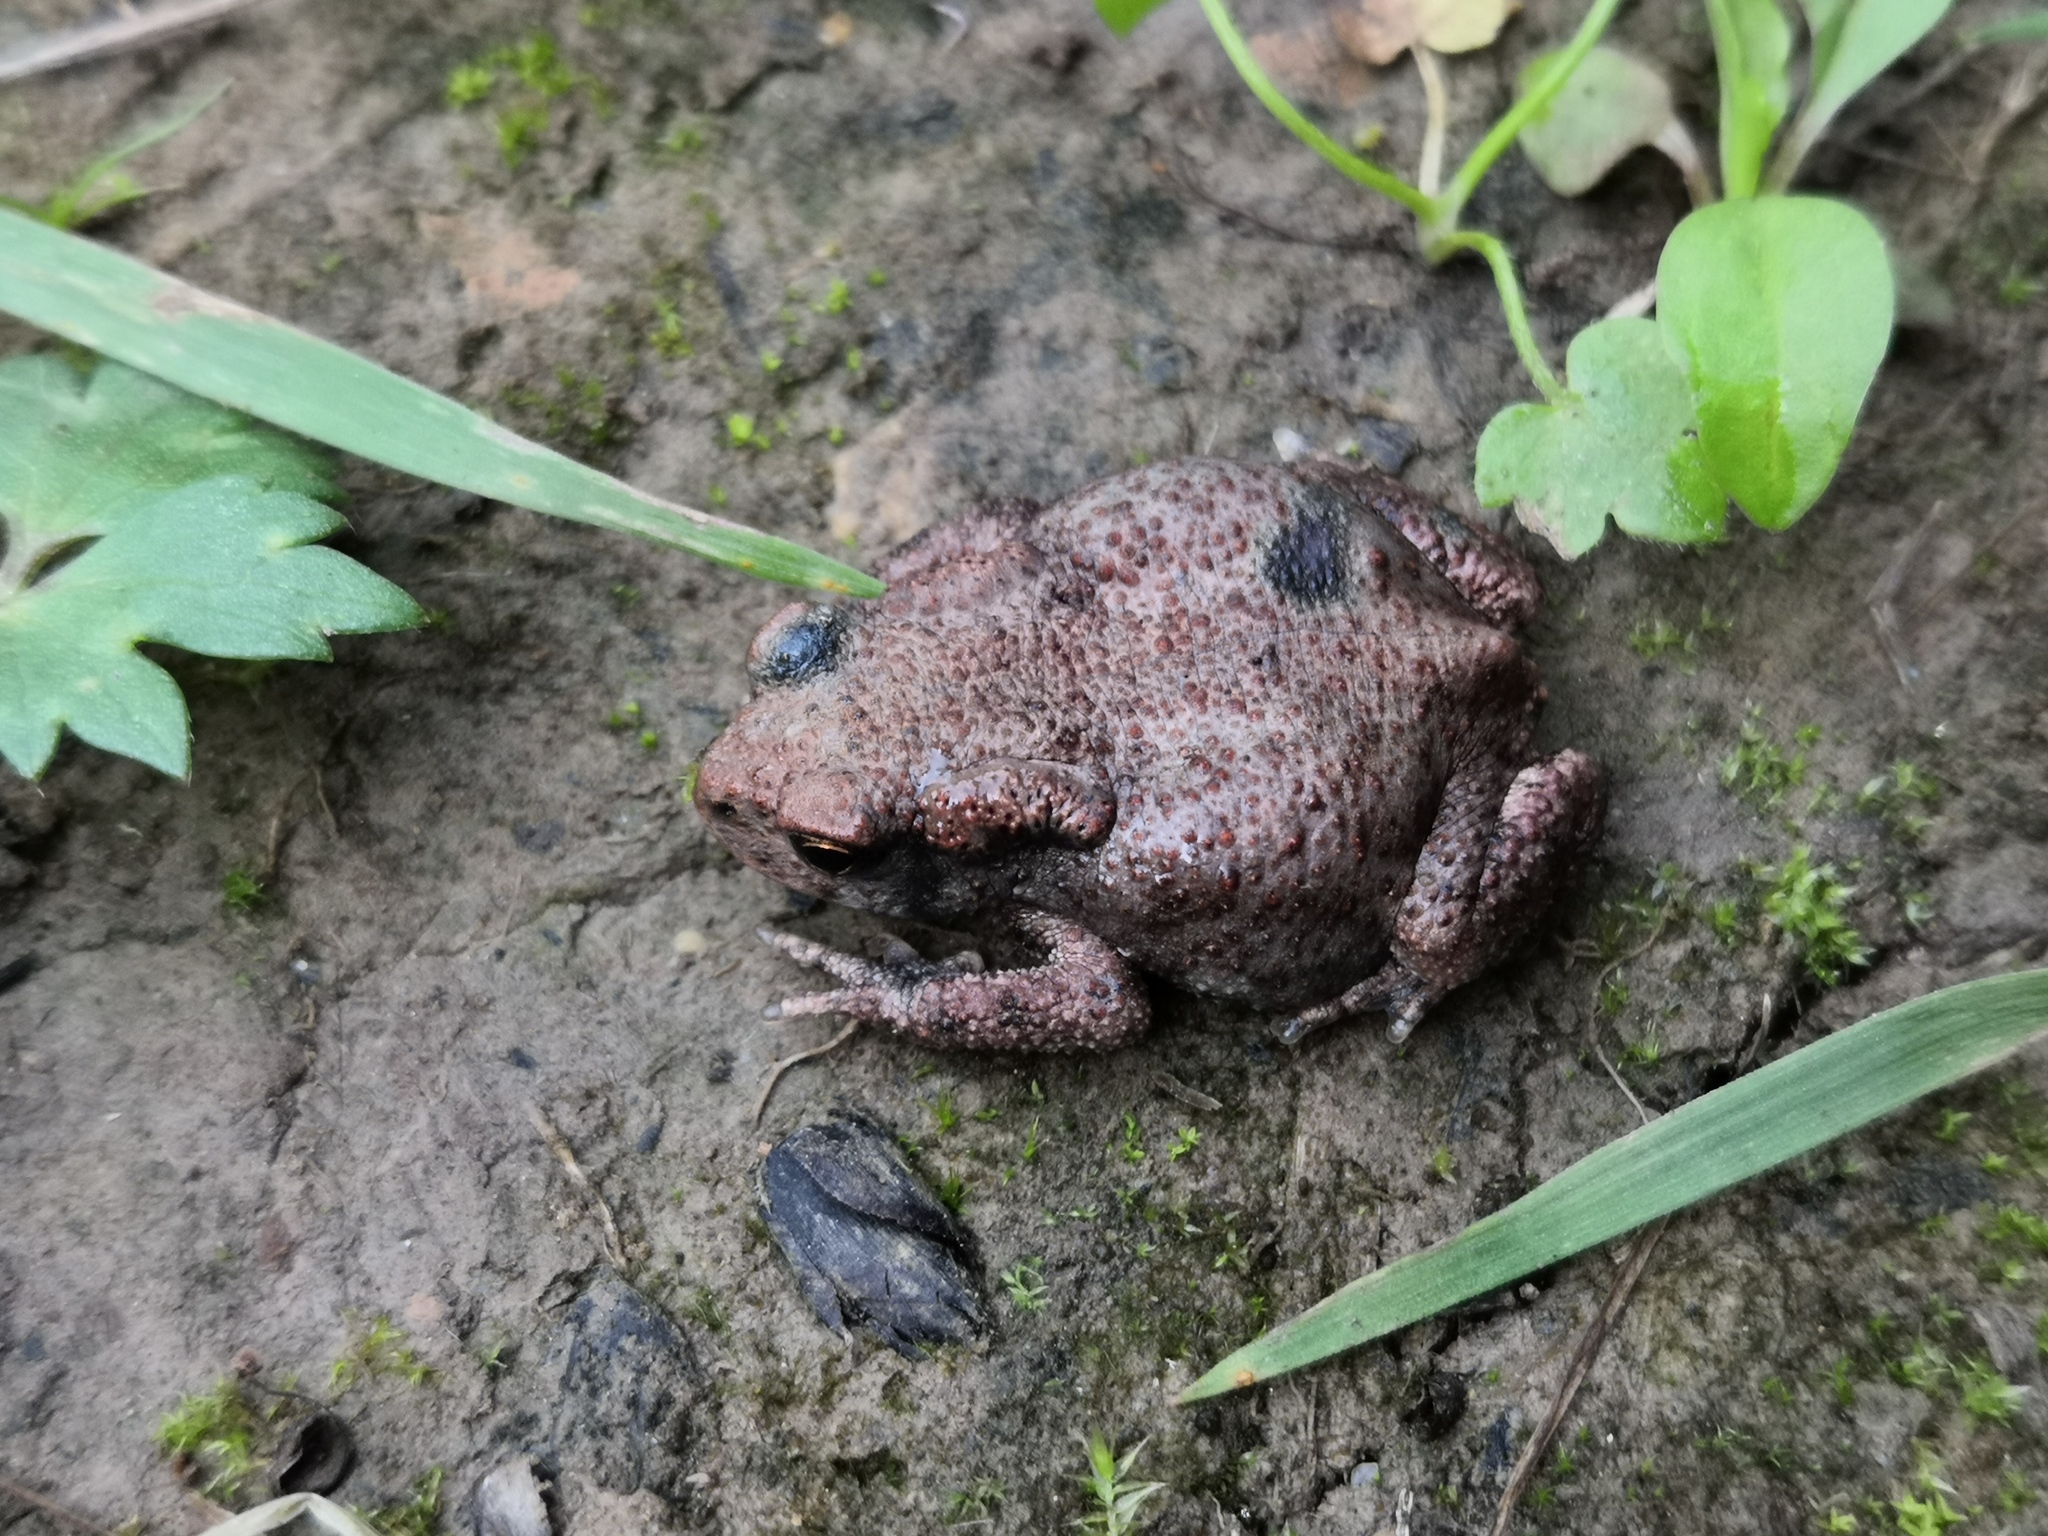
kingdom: Animalia
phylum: Chordata
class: Amphibia
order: Anura
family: Bufonidae
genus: Bufo
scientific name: Bufo bufo
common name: Common toad
